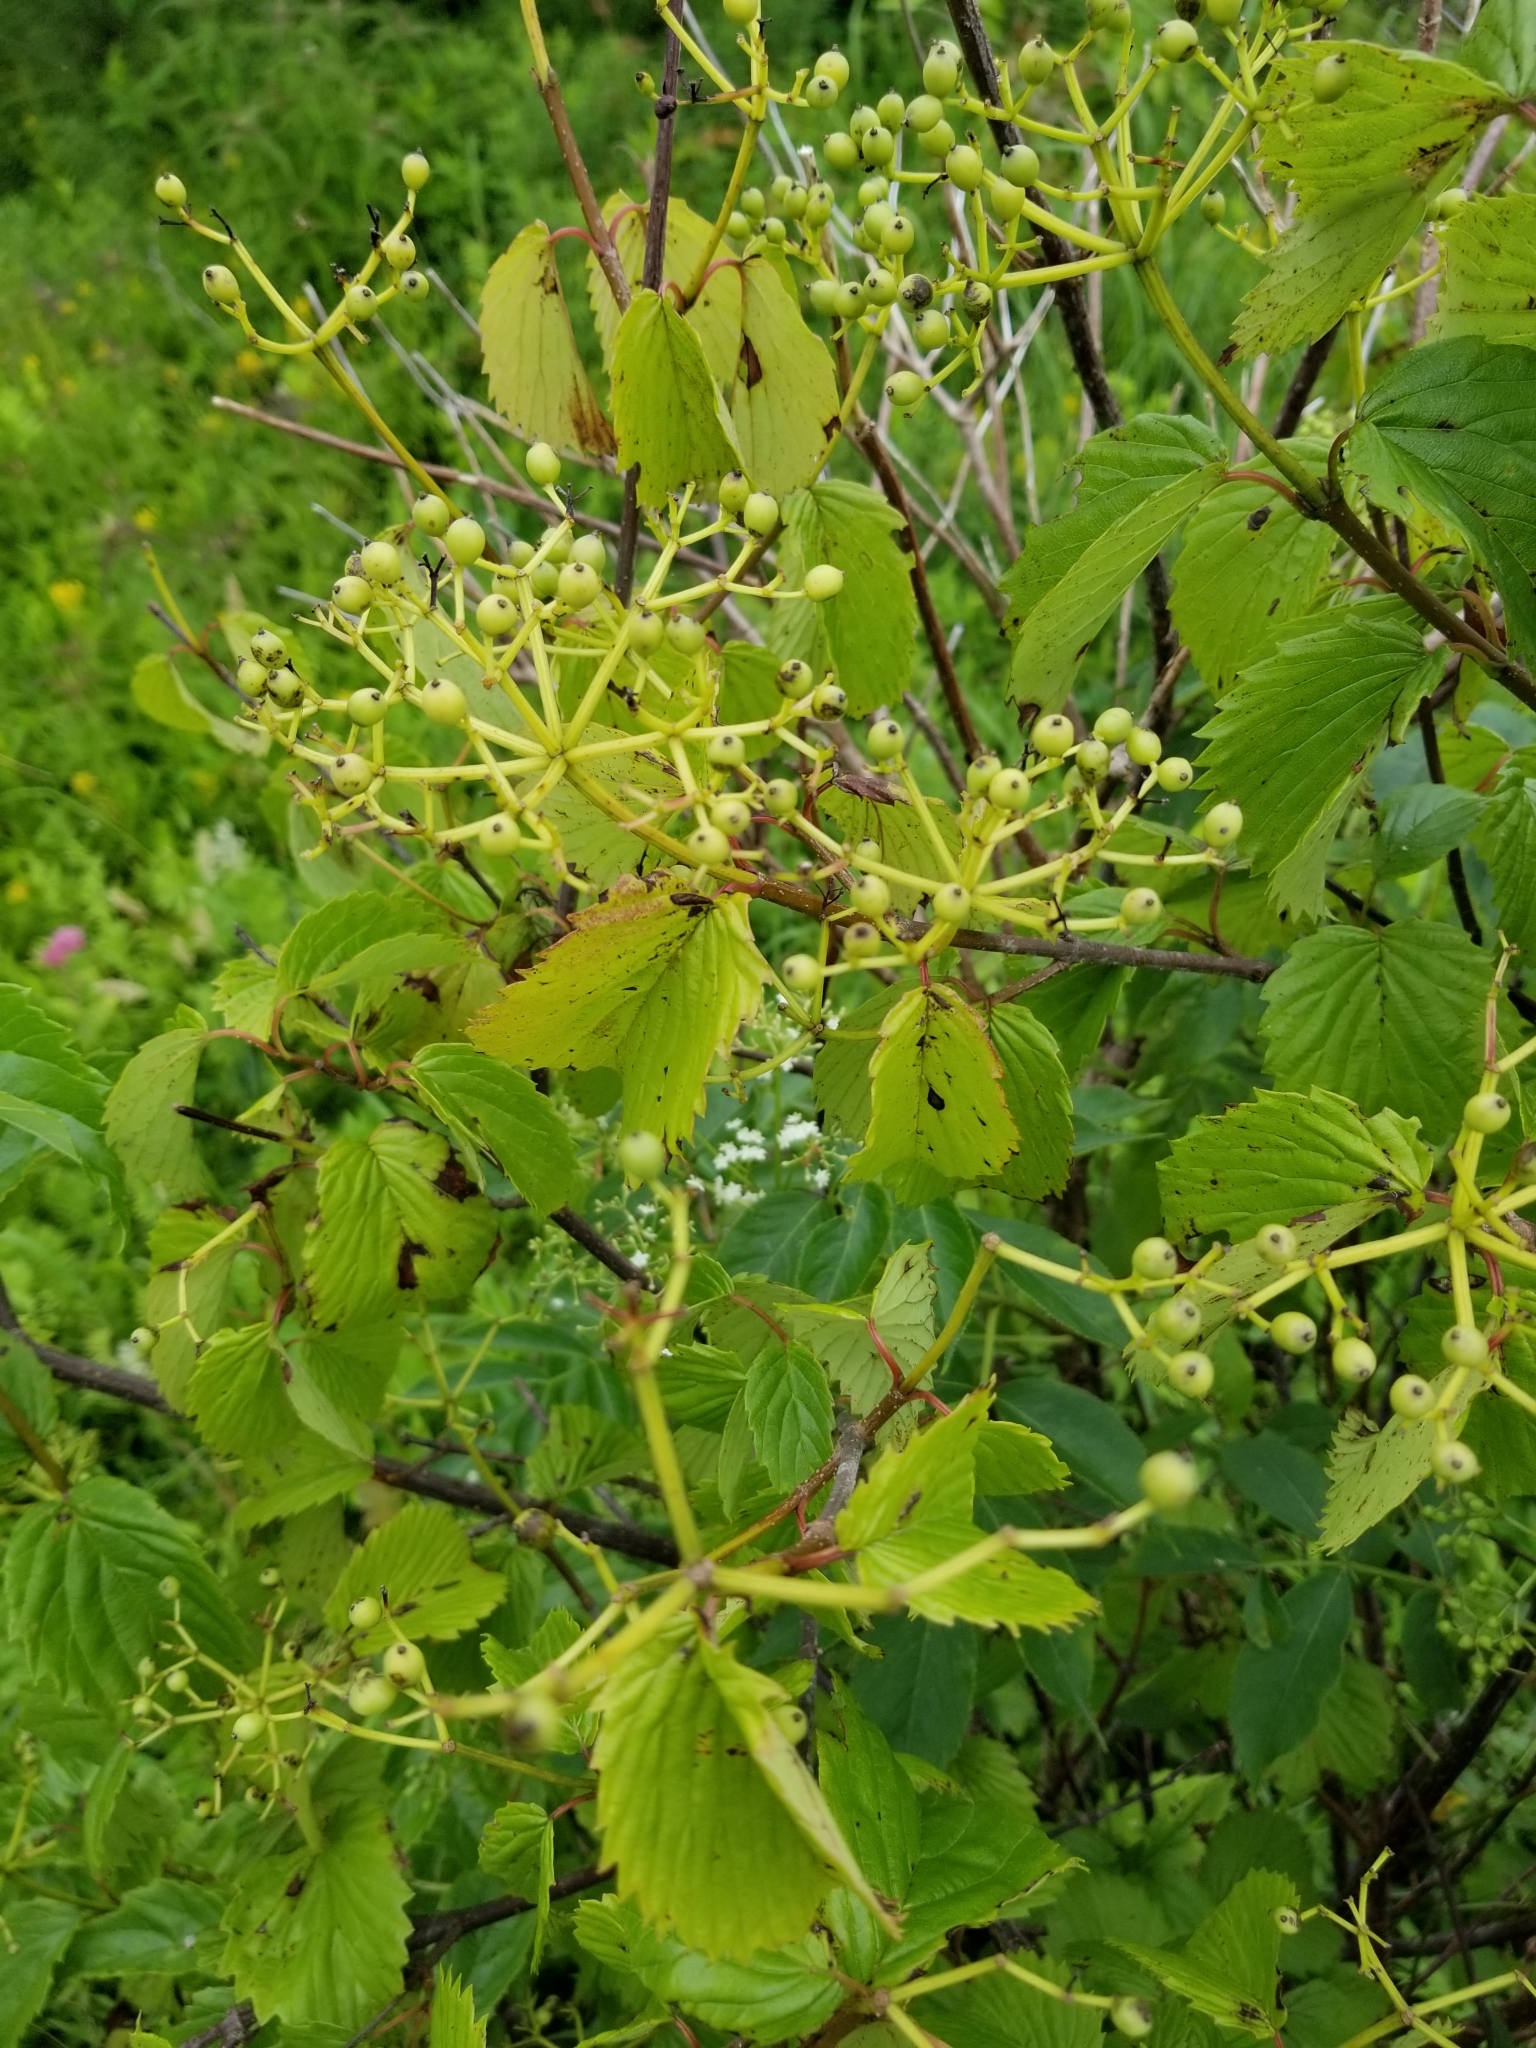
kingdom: Plantae
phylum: Tracheophyta
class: Magnoliopsida
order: Dipsacales
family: Viburnaceae
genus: Viburnum
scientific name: Viburnum dentatum
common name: Arrow-wood
